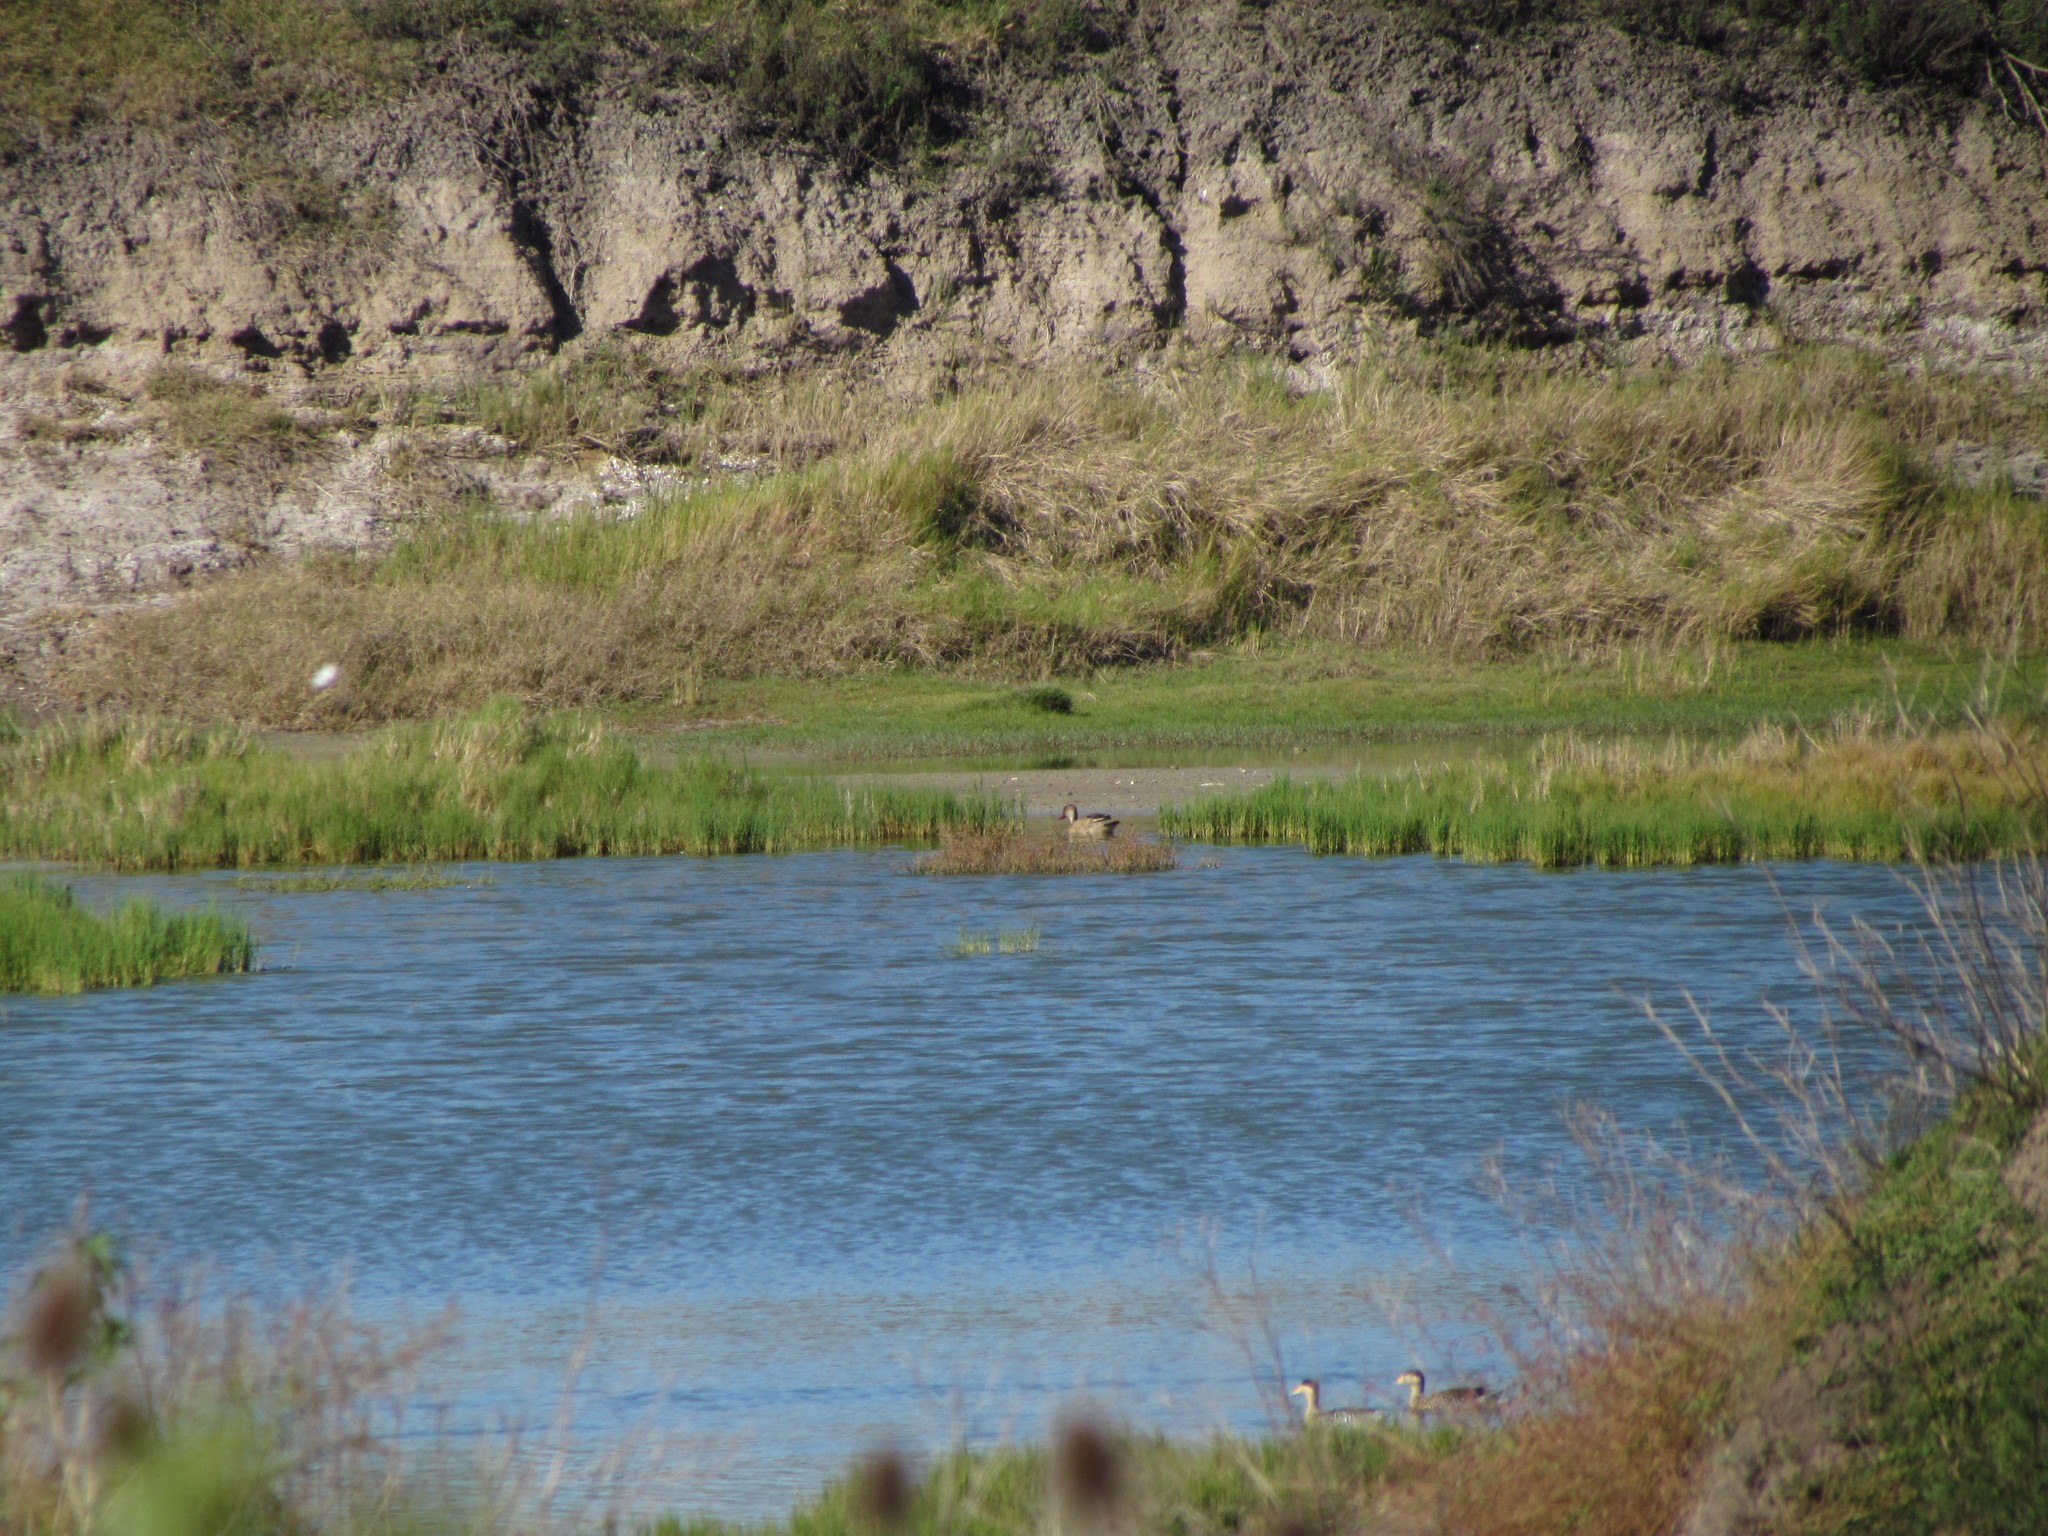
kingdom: Animalia
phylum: Chordata
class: Aves
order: Anseriformes
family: Anatidae
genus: Amazonetta
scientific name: Amazonetta brasiliensis
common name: Brazilian teal
